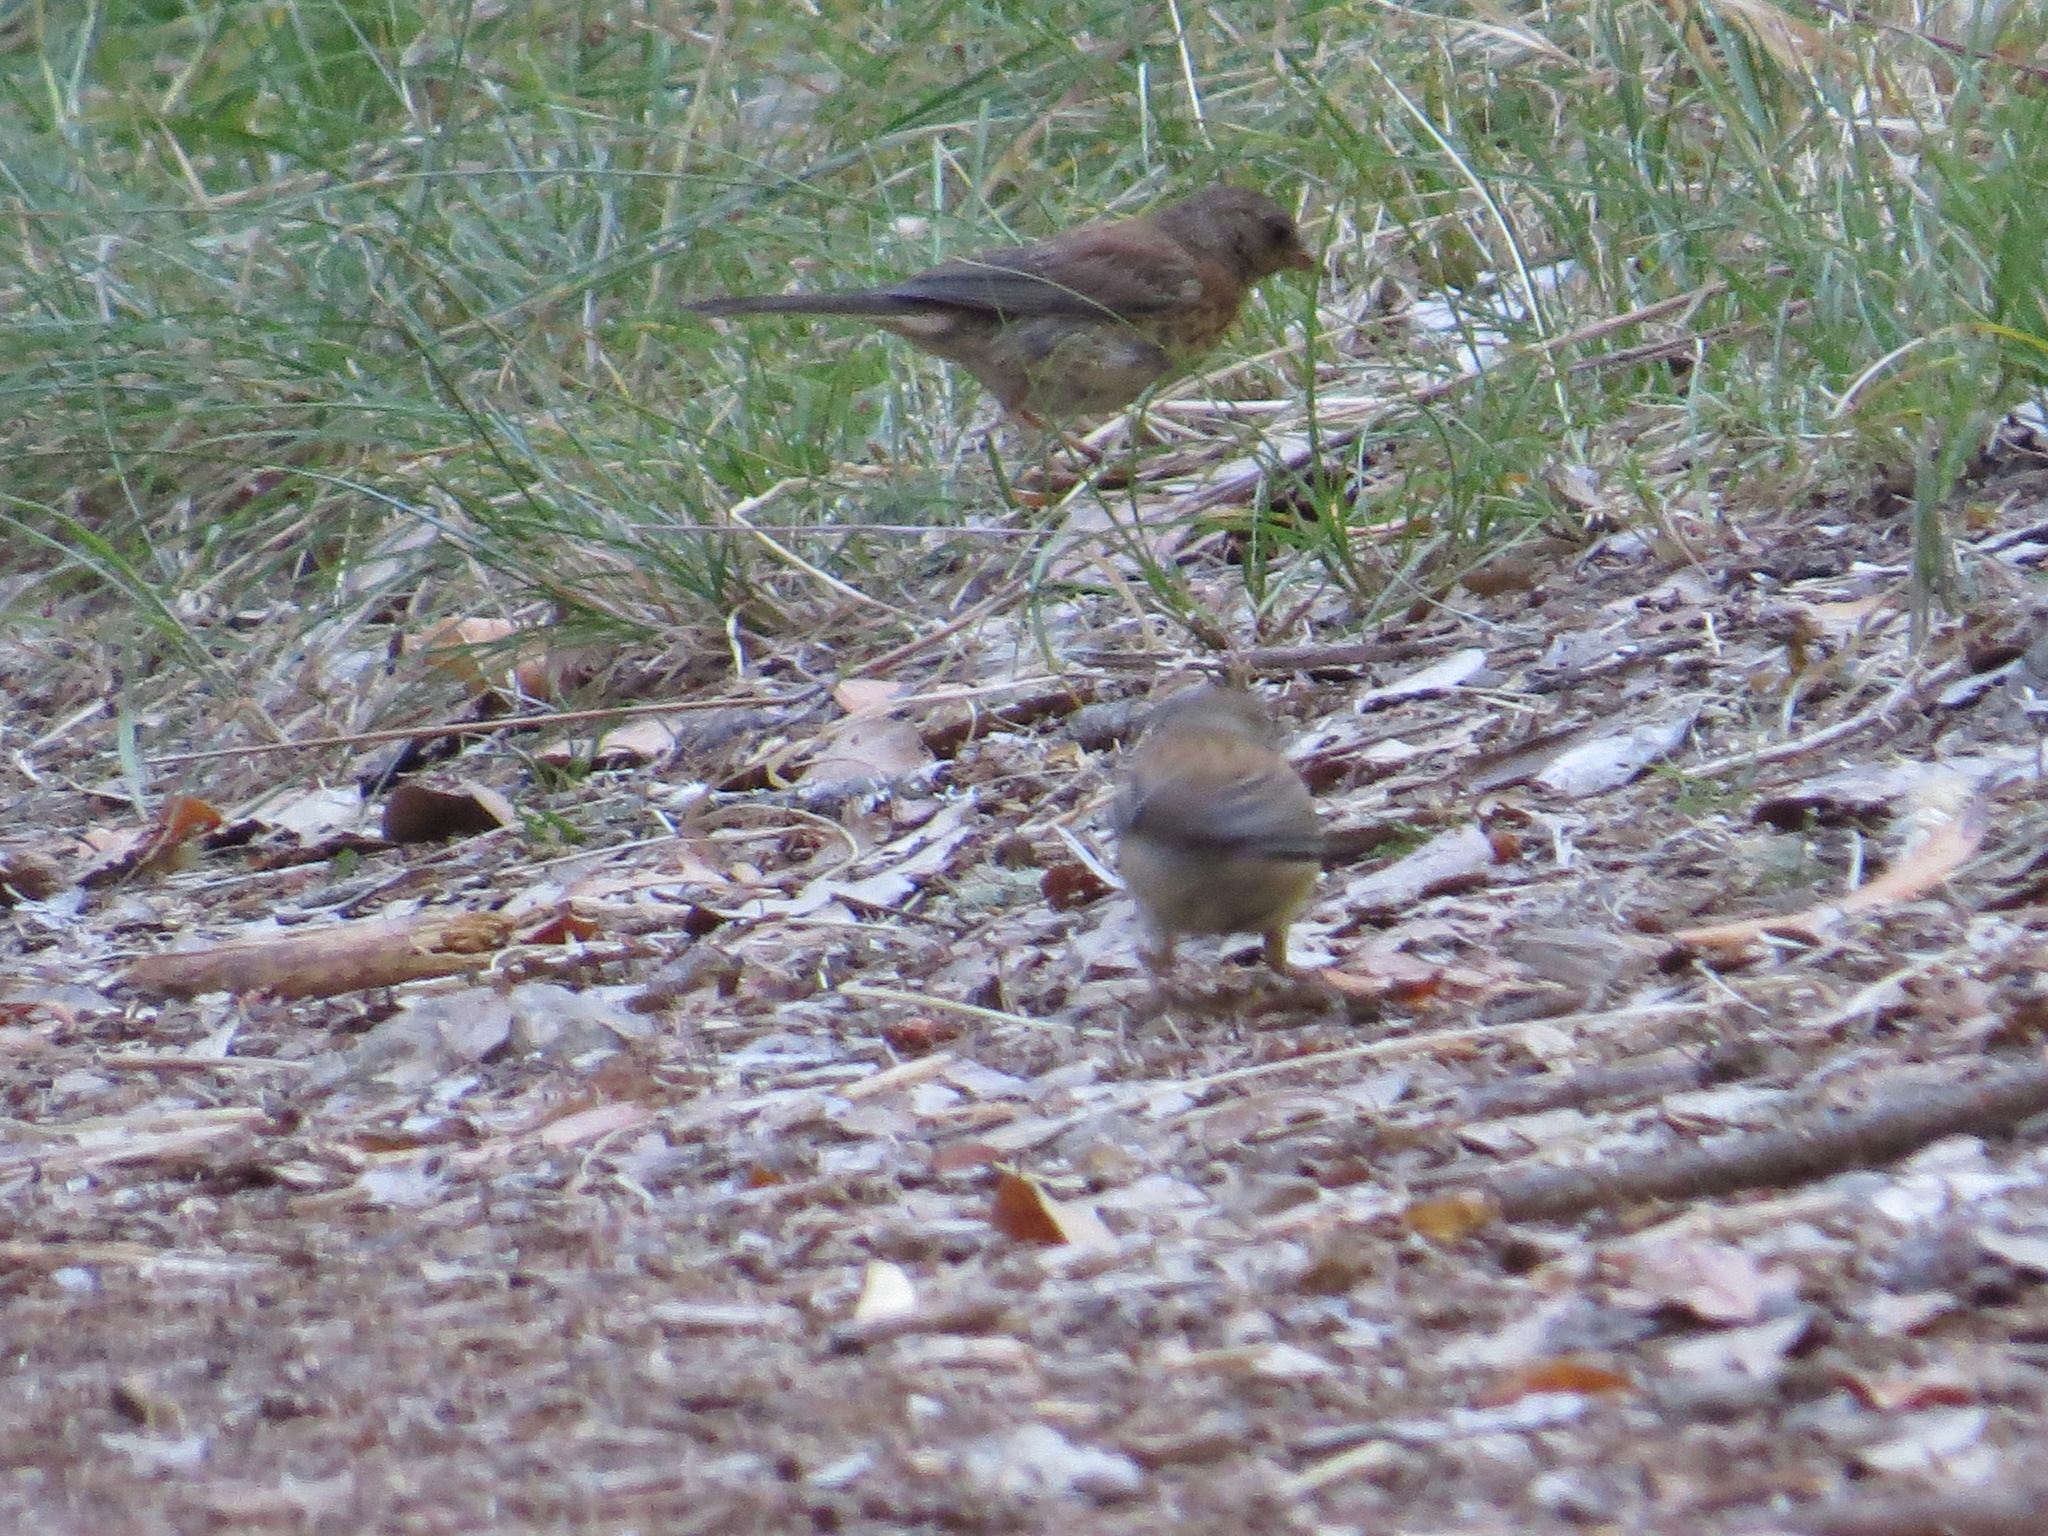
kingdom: Animalia
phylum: Chordata
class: Aves
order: Passeriformes
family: Passerellidae
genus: Junco
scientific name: Junco hyemalis
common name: Dark-eyed junco
